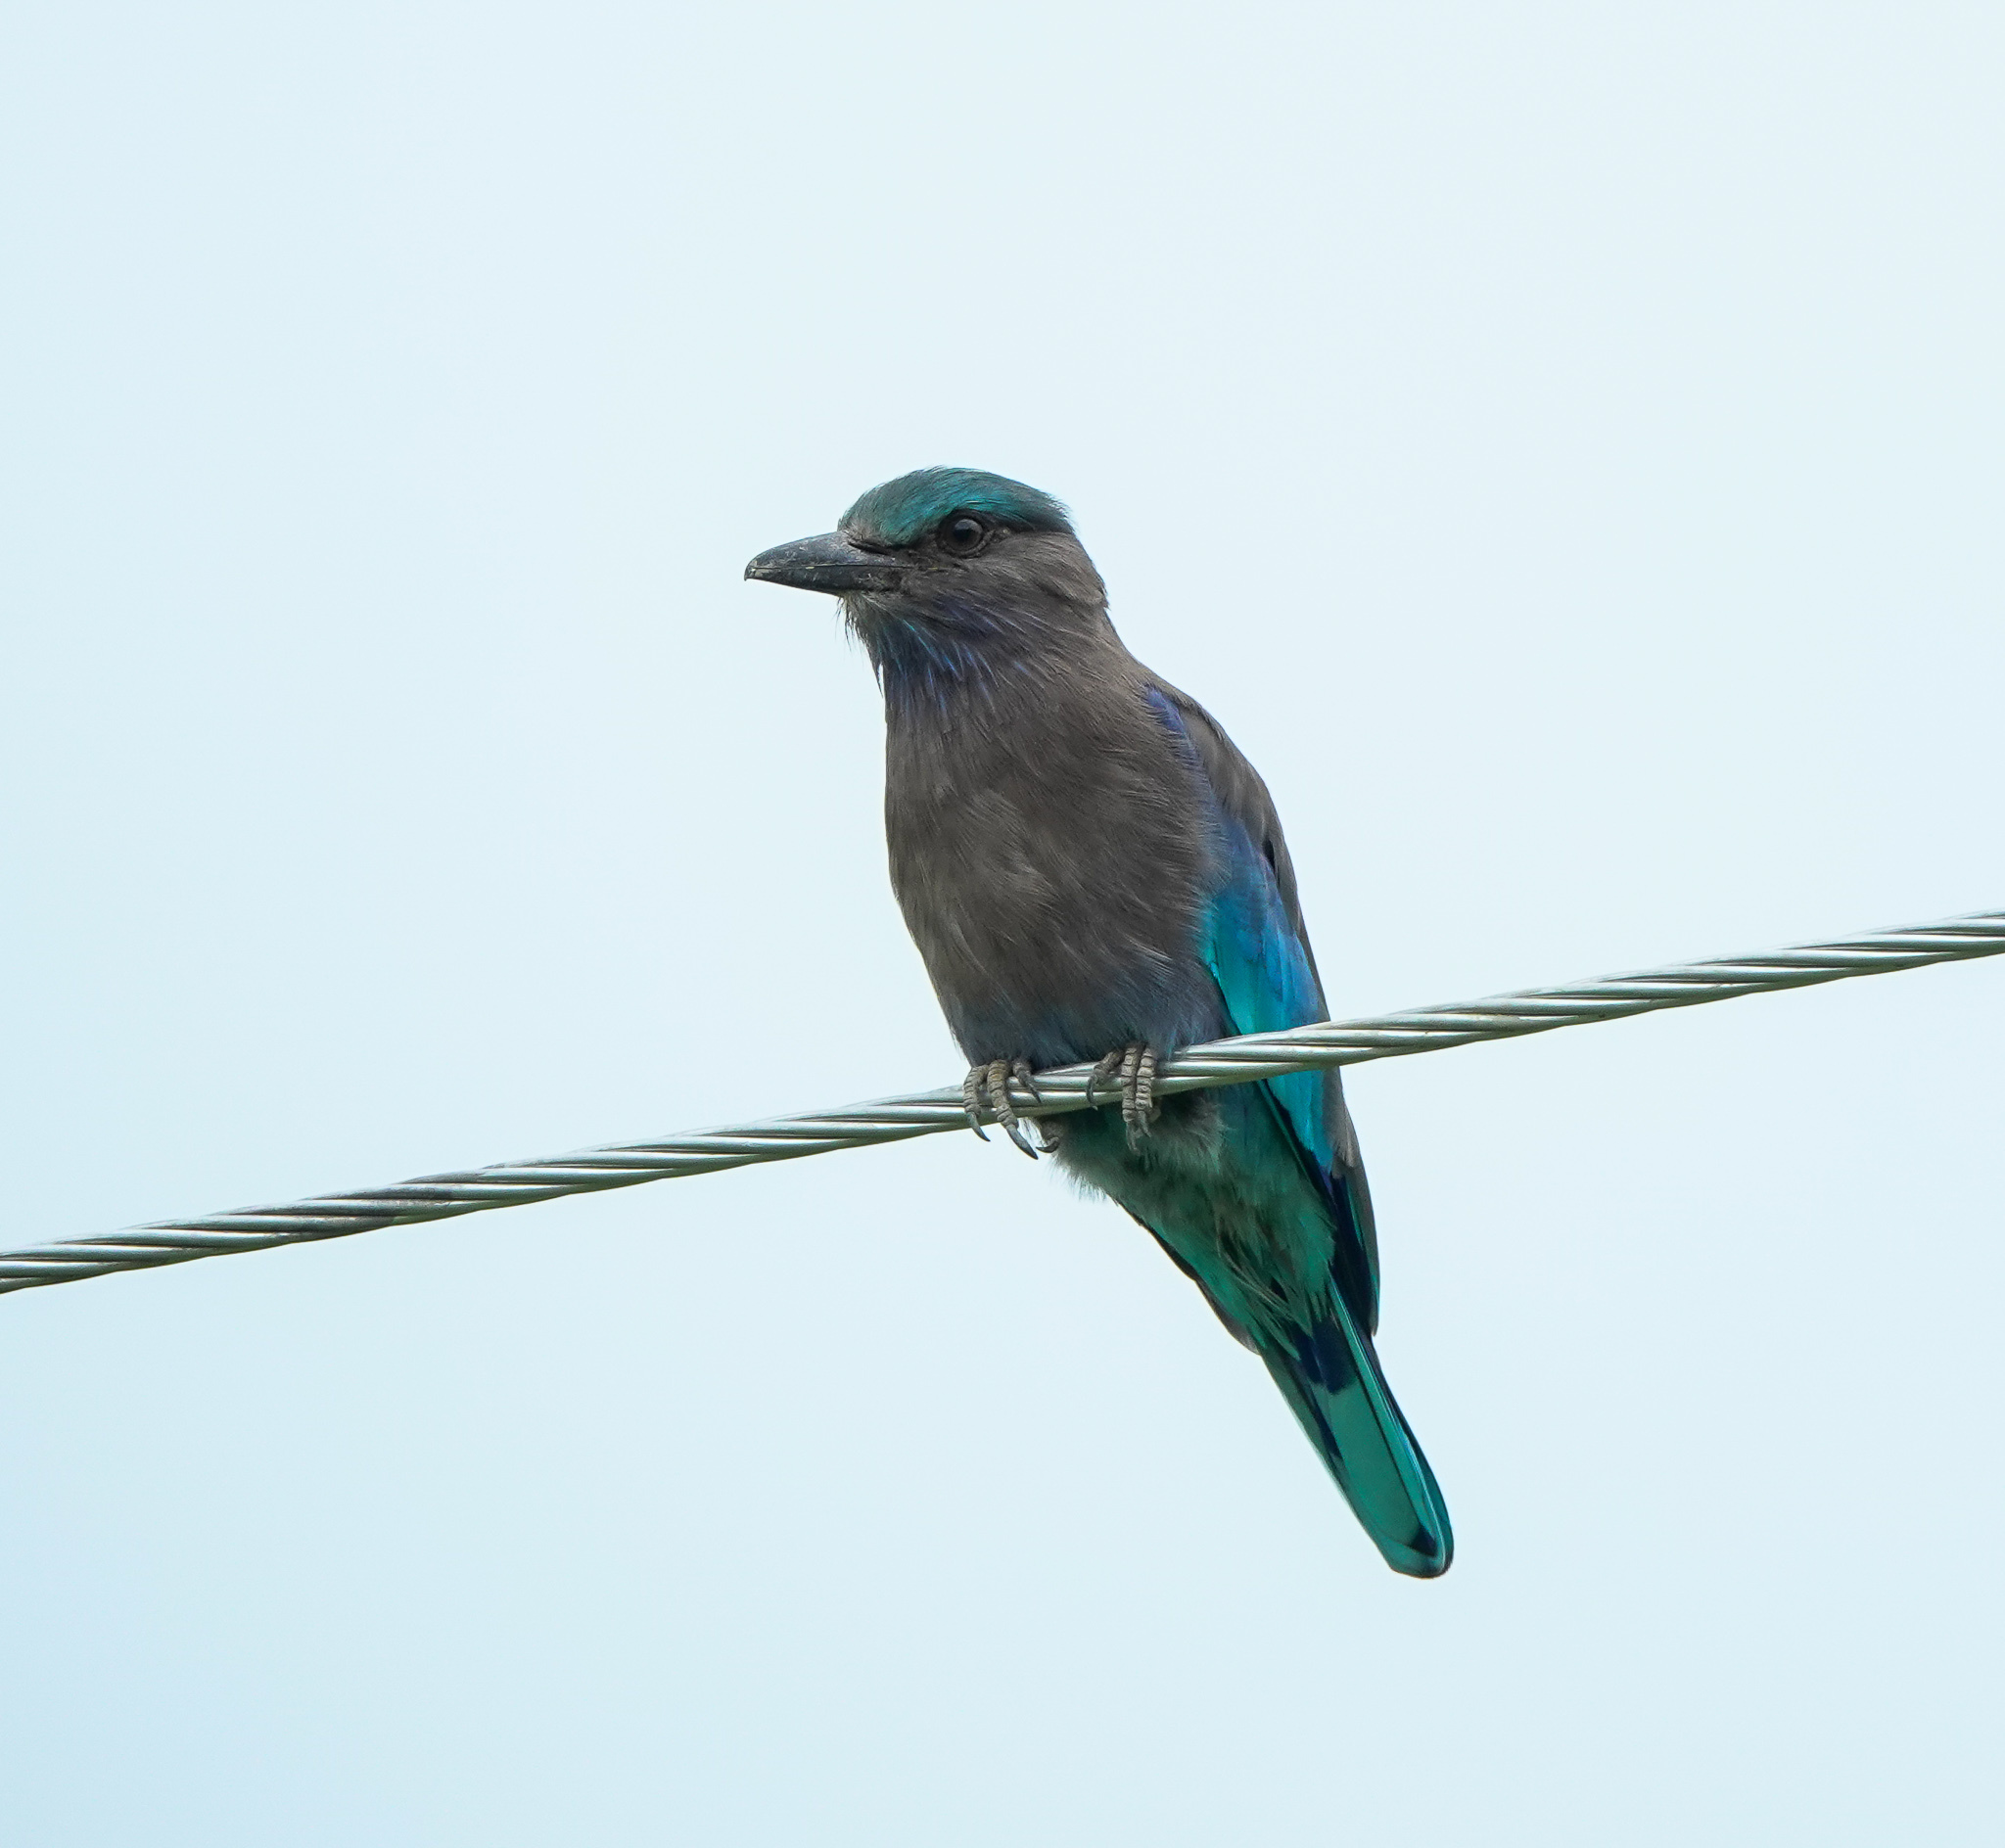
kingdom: Animalia
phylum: Chordata
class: Aves
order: Coraciiformes
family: Coraciidae
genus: Coracias
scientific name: Coracias affinis
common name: Indochinese roller
